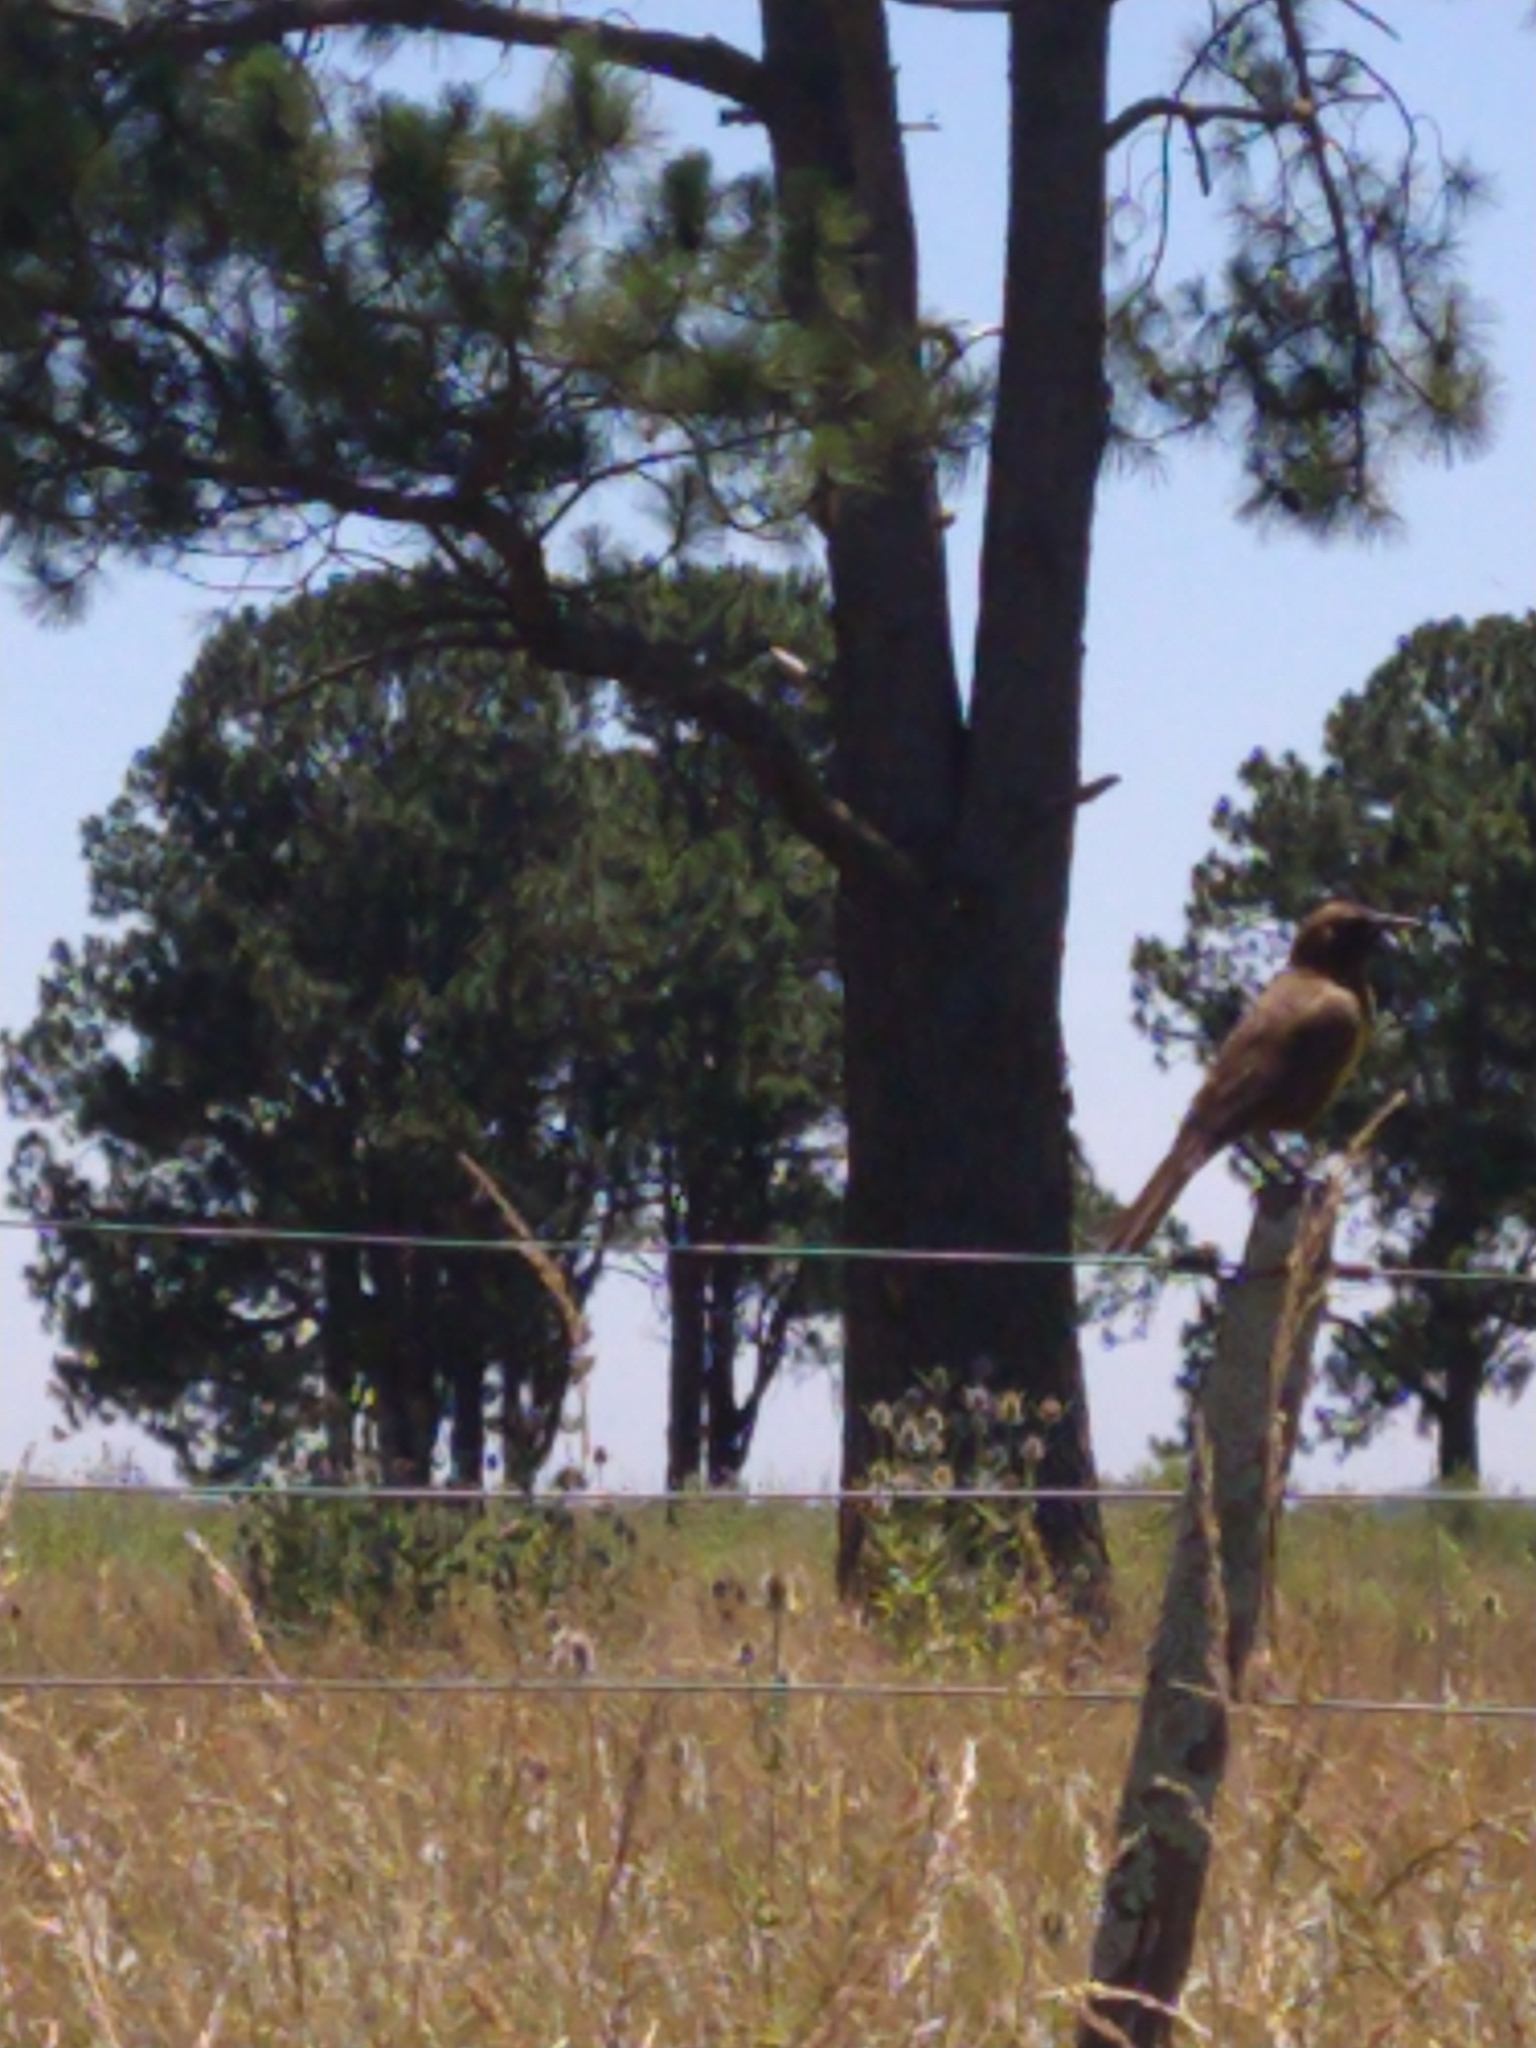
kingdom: Animalia
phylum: Chordata
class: Aves
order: Passeriformes
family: Icteridae
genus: Pseudoleistes
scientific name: Pseudoleistes virescens
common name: Brown-and-yellow marshbird
